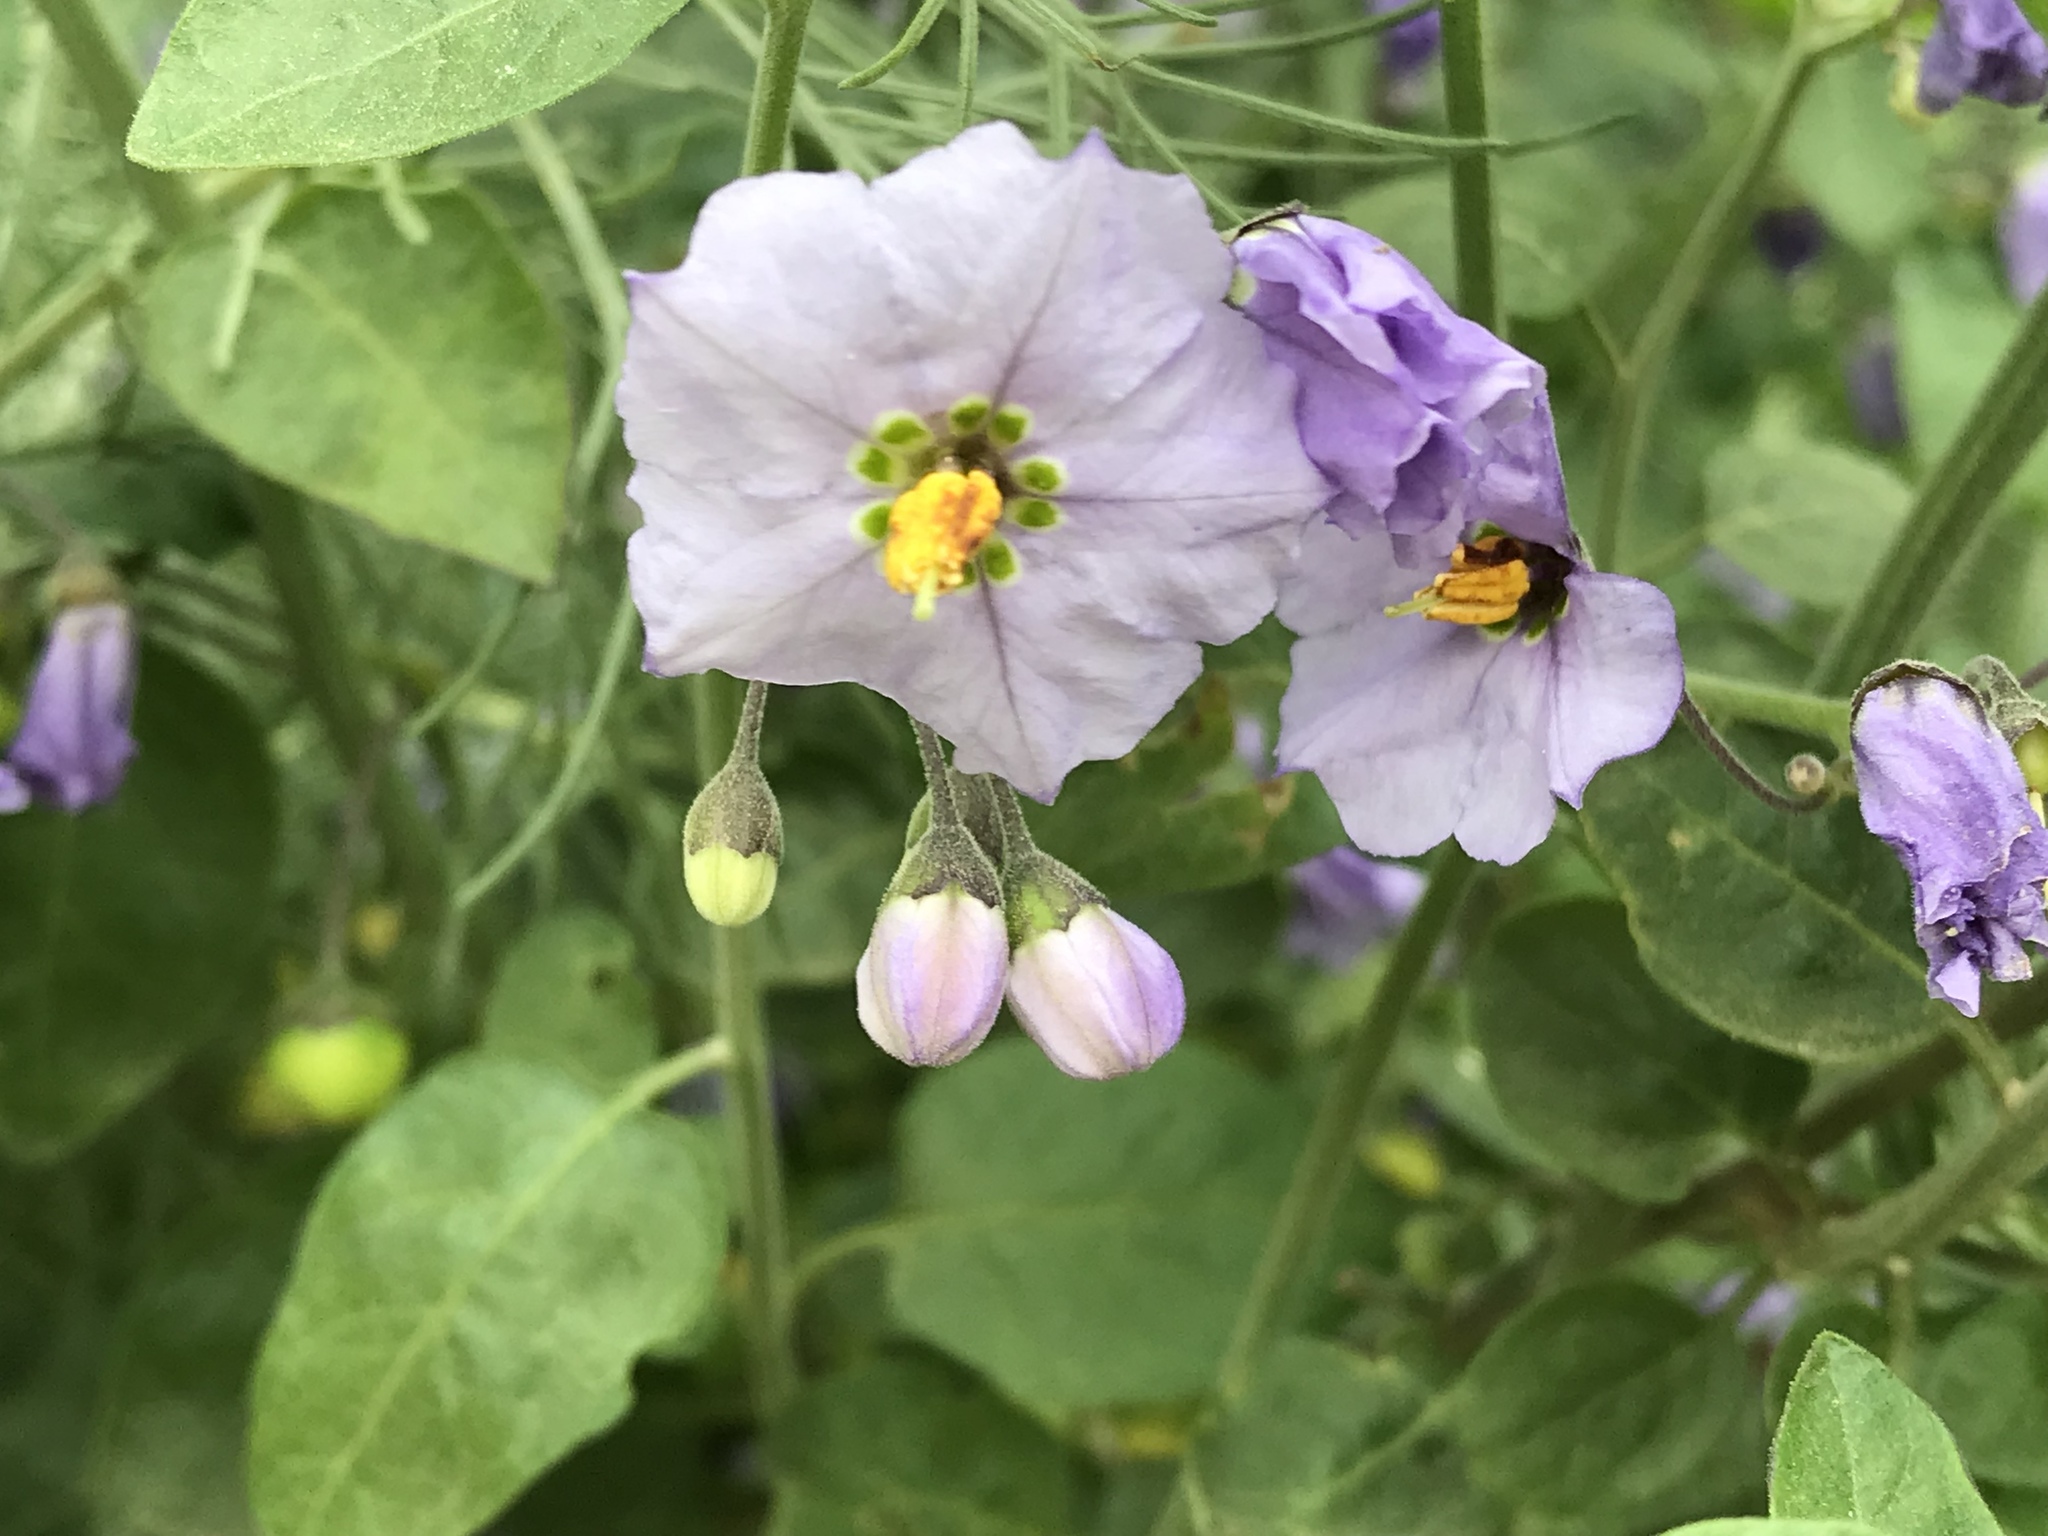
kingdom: Plantae
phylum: Tracheophyta
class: Magnoliopsida
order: Solanales
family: Solanaceae
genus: Solanum
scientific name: Solanum umbelliferum
